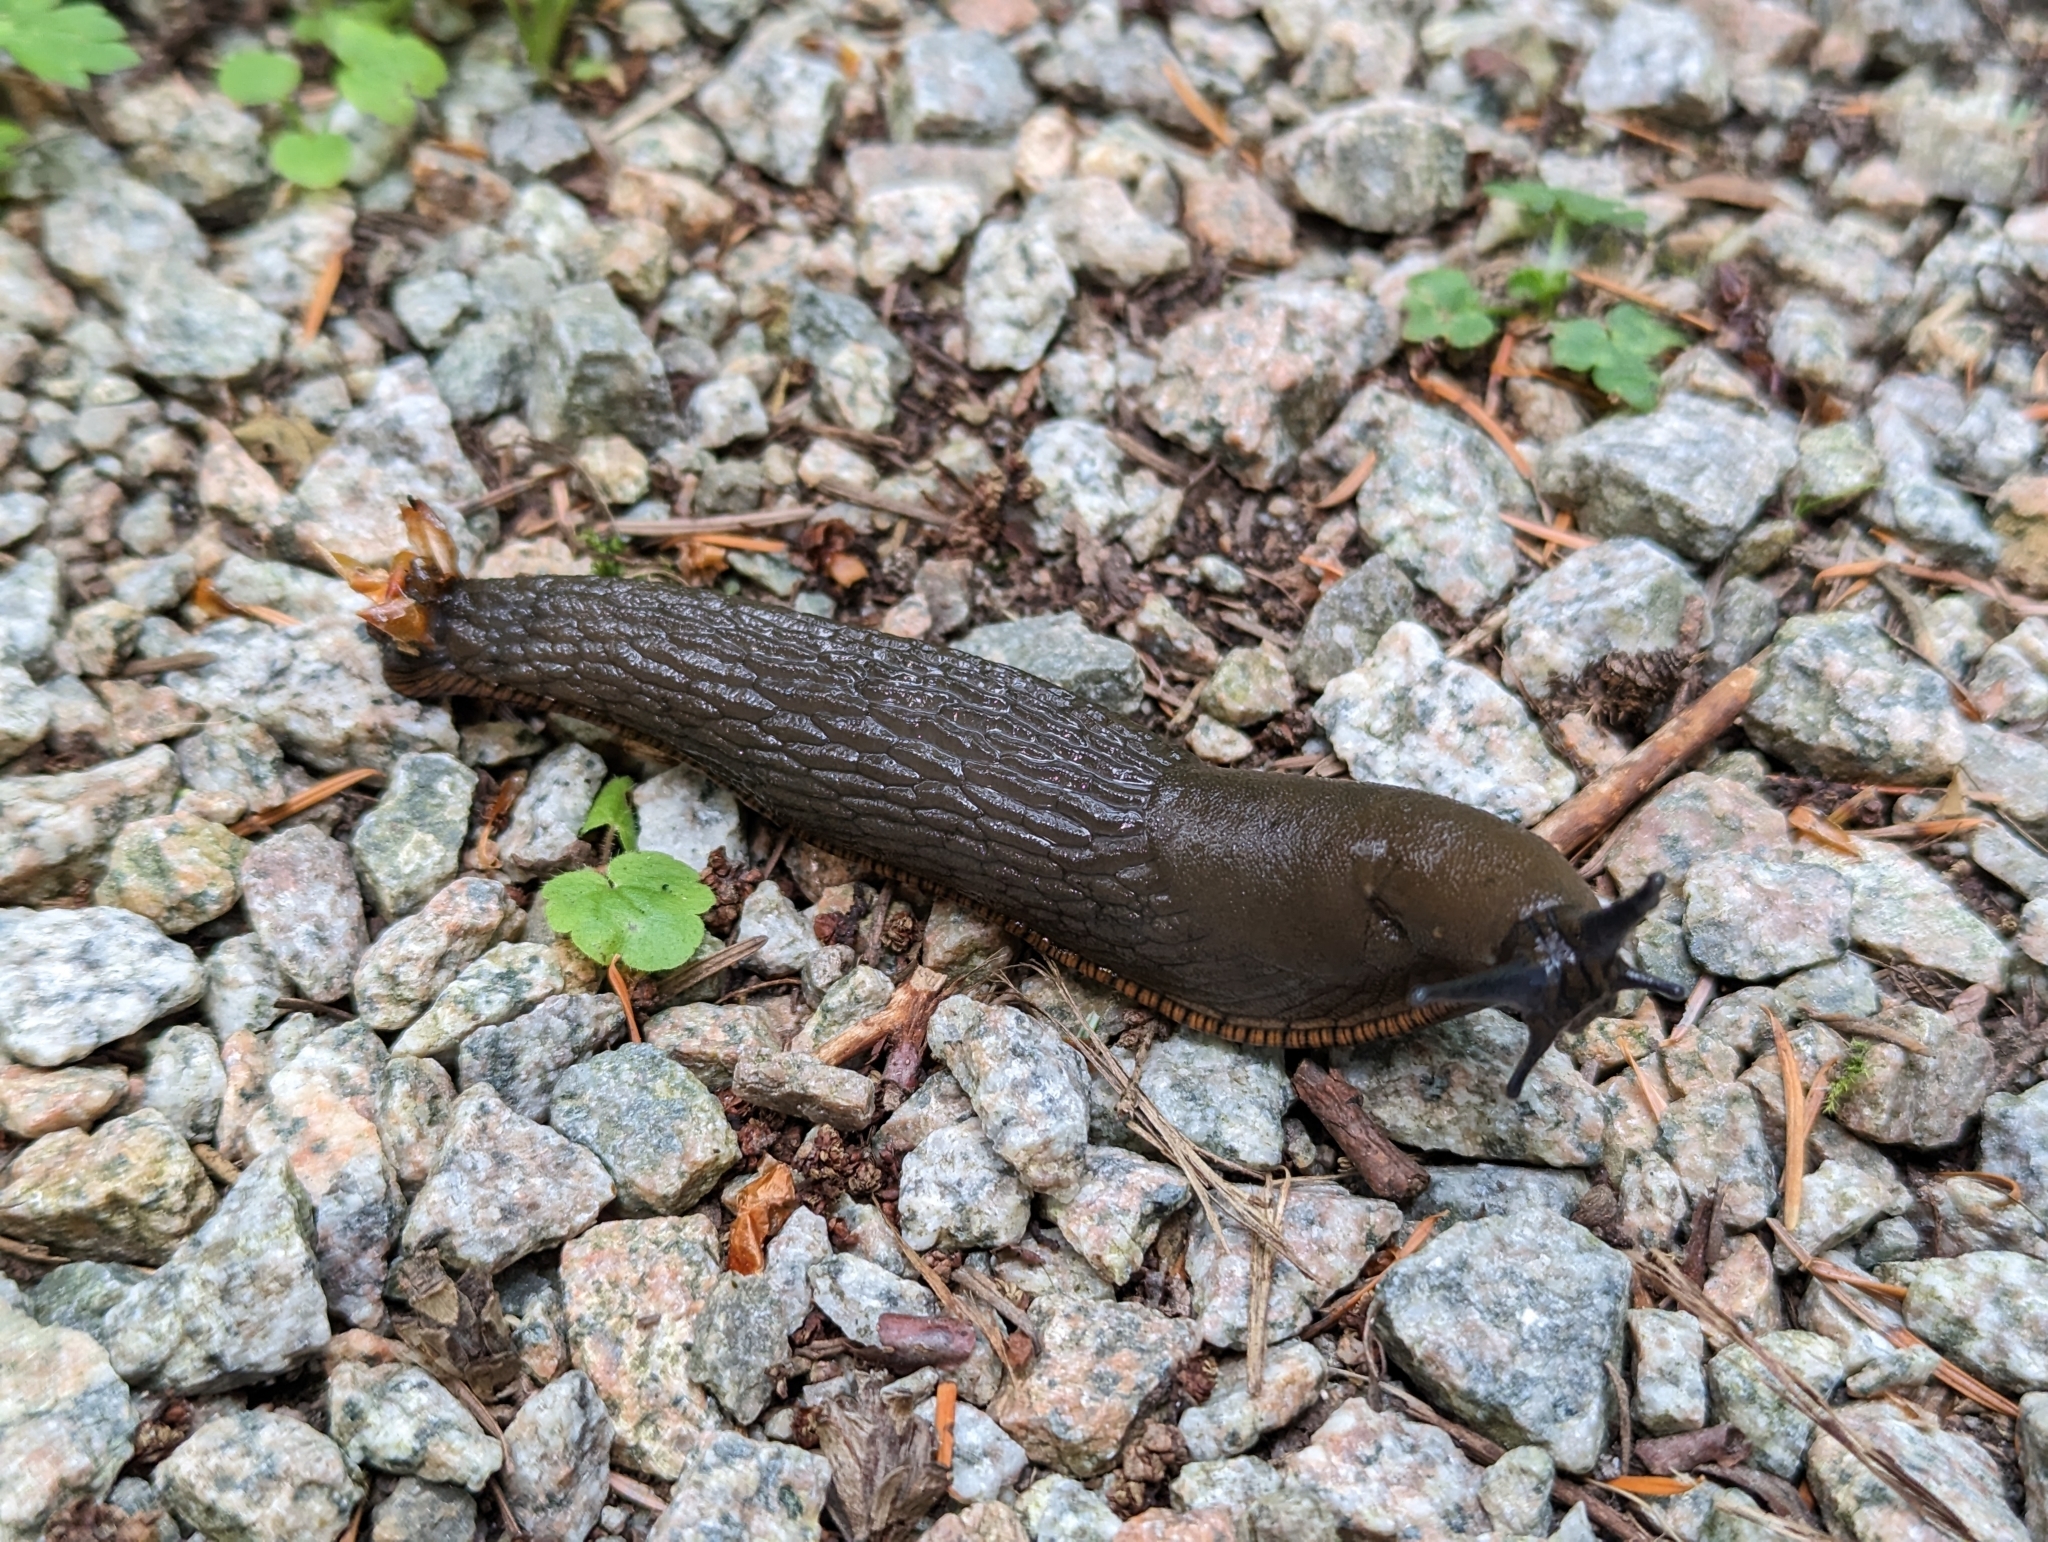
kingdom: Animalia
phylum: Mollusca
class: Gastropoda
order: Stylommatophora
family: Arionidae
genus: Arion
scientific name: Arion
